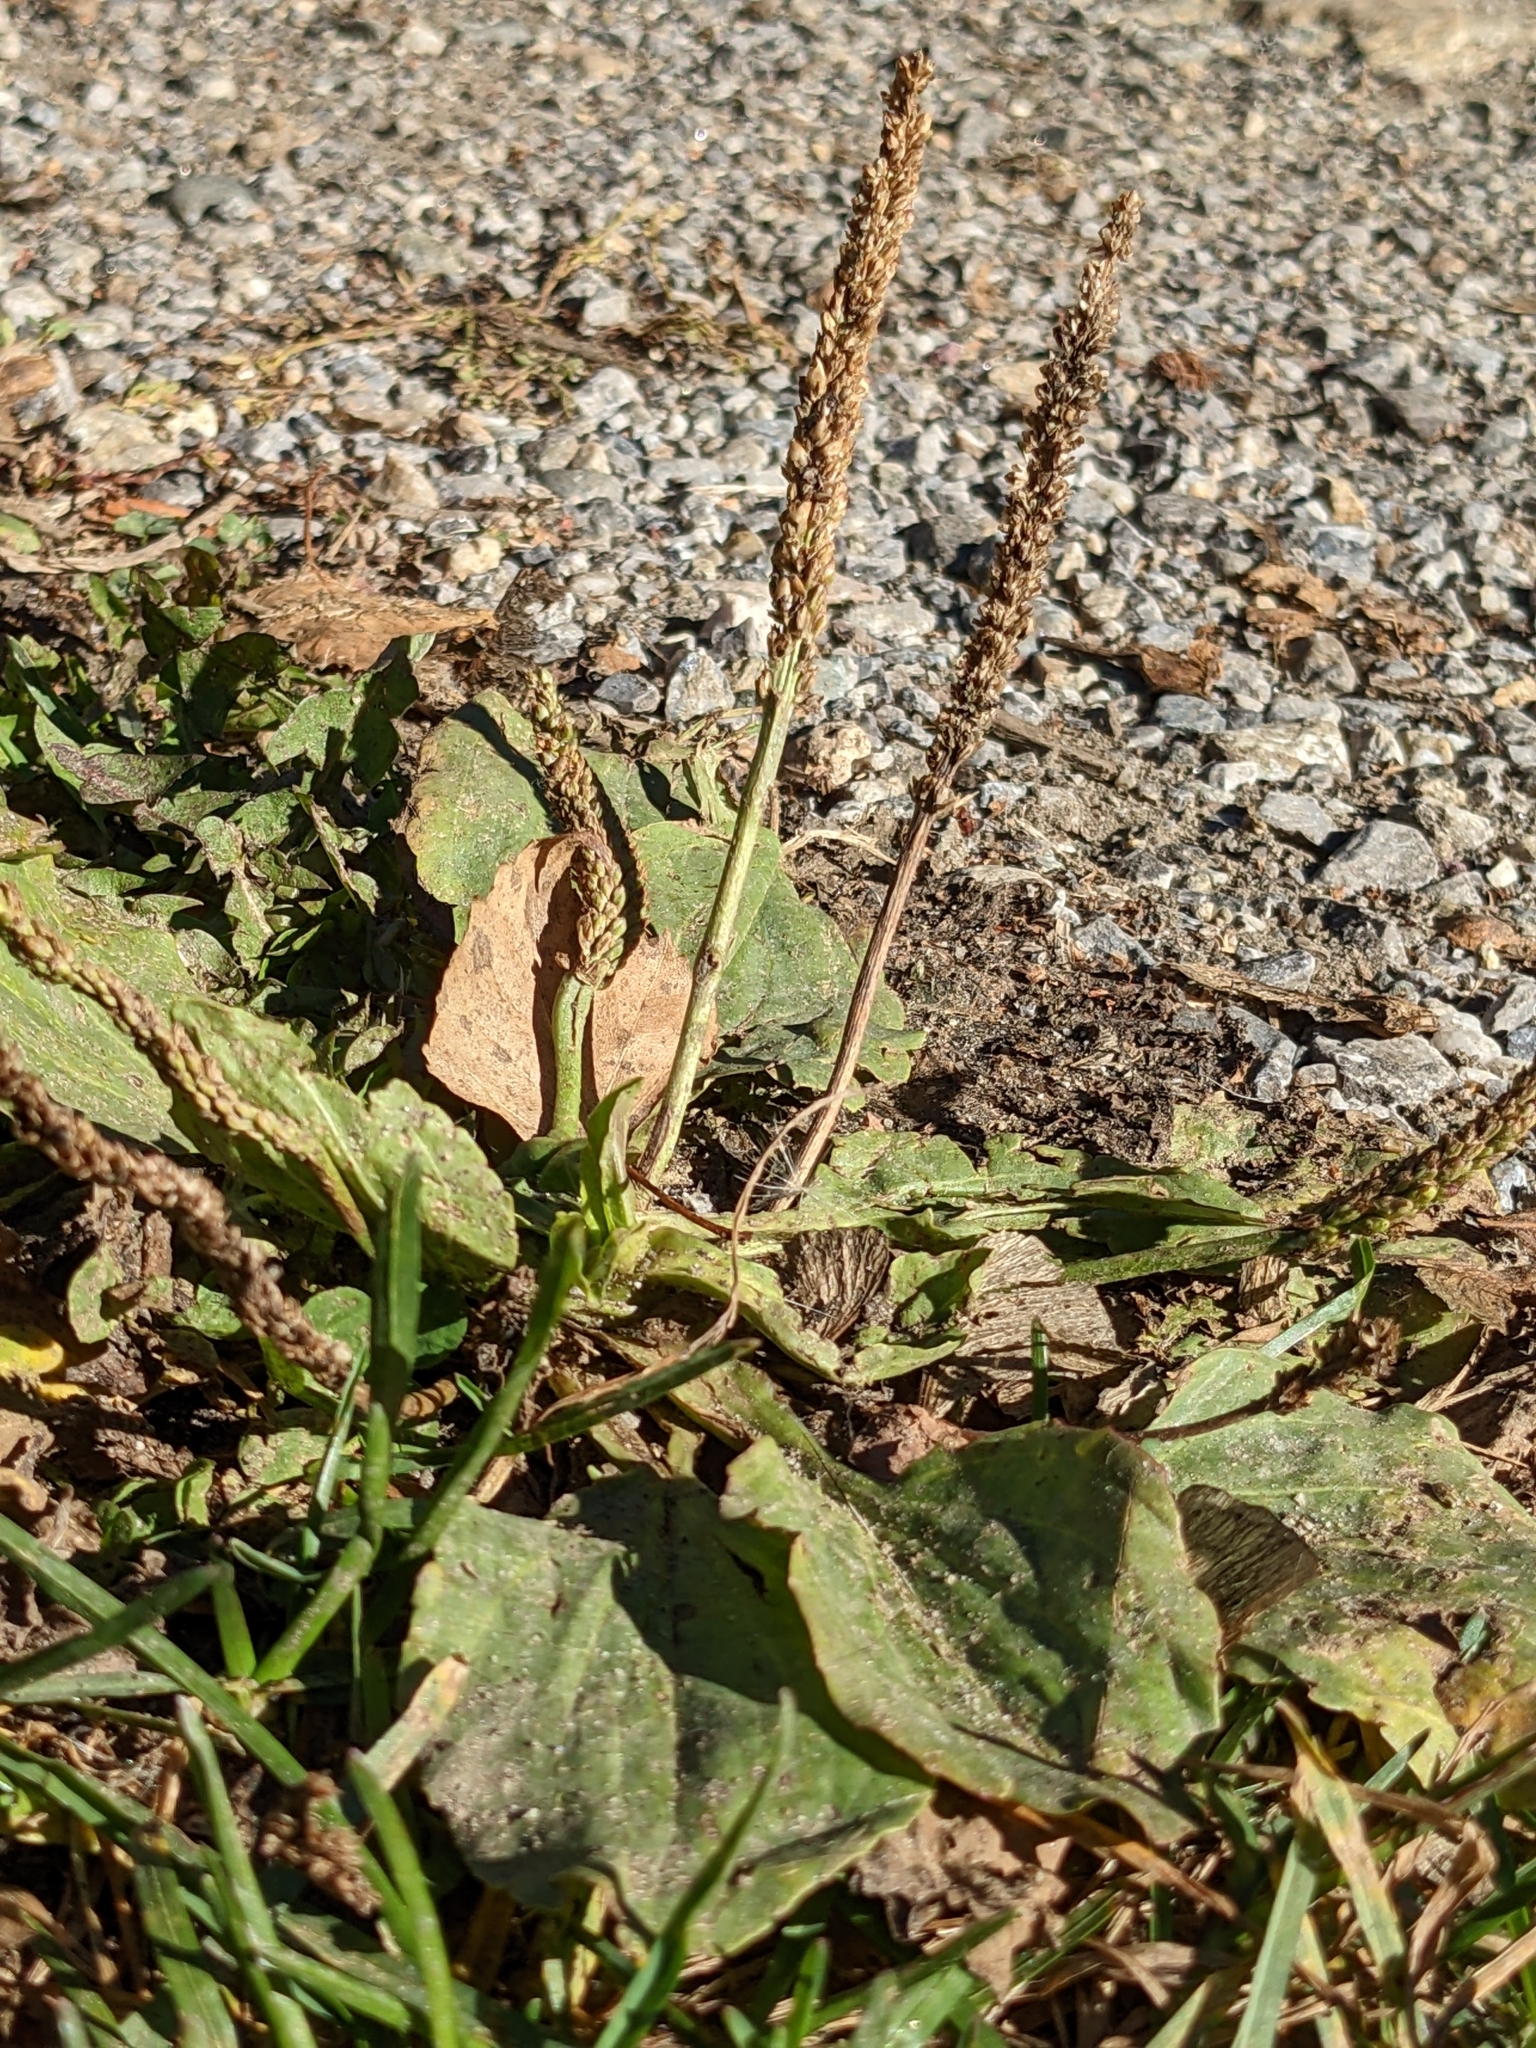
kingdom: Plantae
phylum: Tracheophyta
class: Magnoliopsida
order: Lamiales
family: Plantaginaceae
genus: Plantago
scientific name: Plantago major
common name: Common plantain
